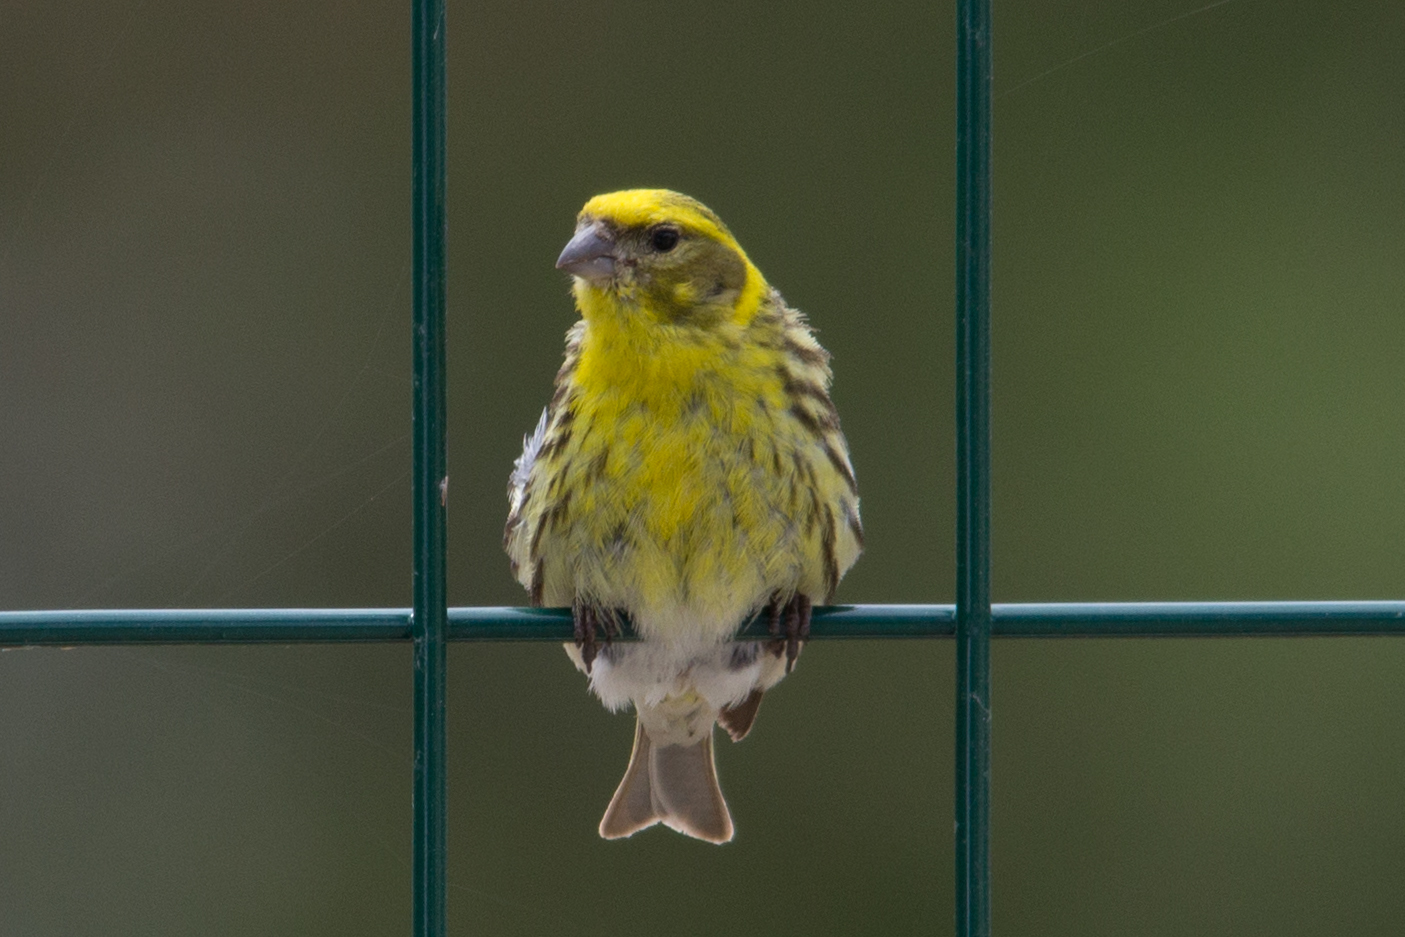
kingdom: Animalia
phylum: Chordata
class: Aves
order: Passeriformes
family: Fringillidae
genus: Serinus
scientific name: Serinus serinus
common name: European serin
